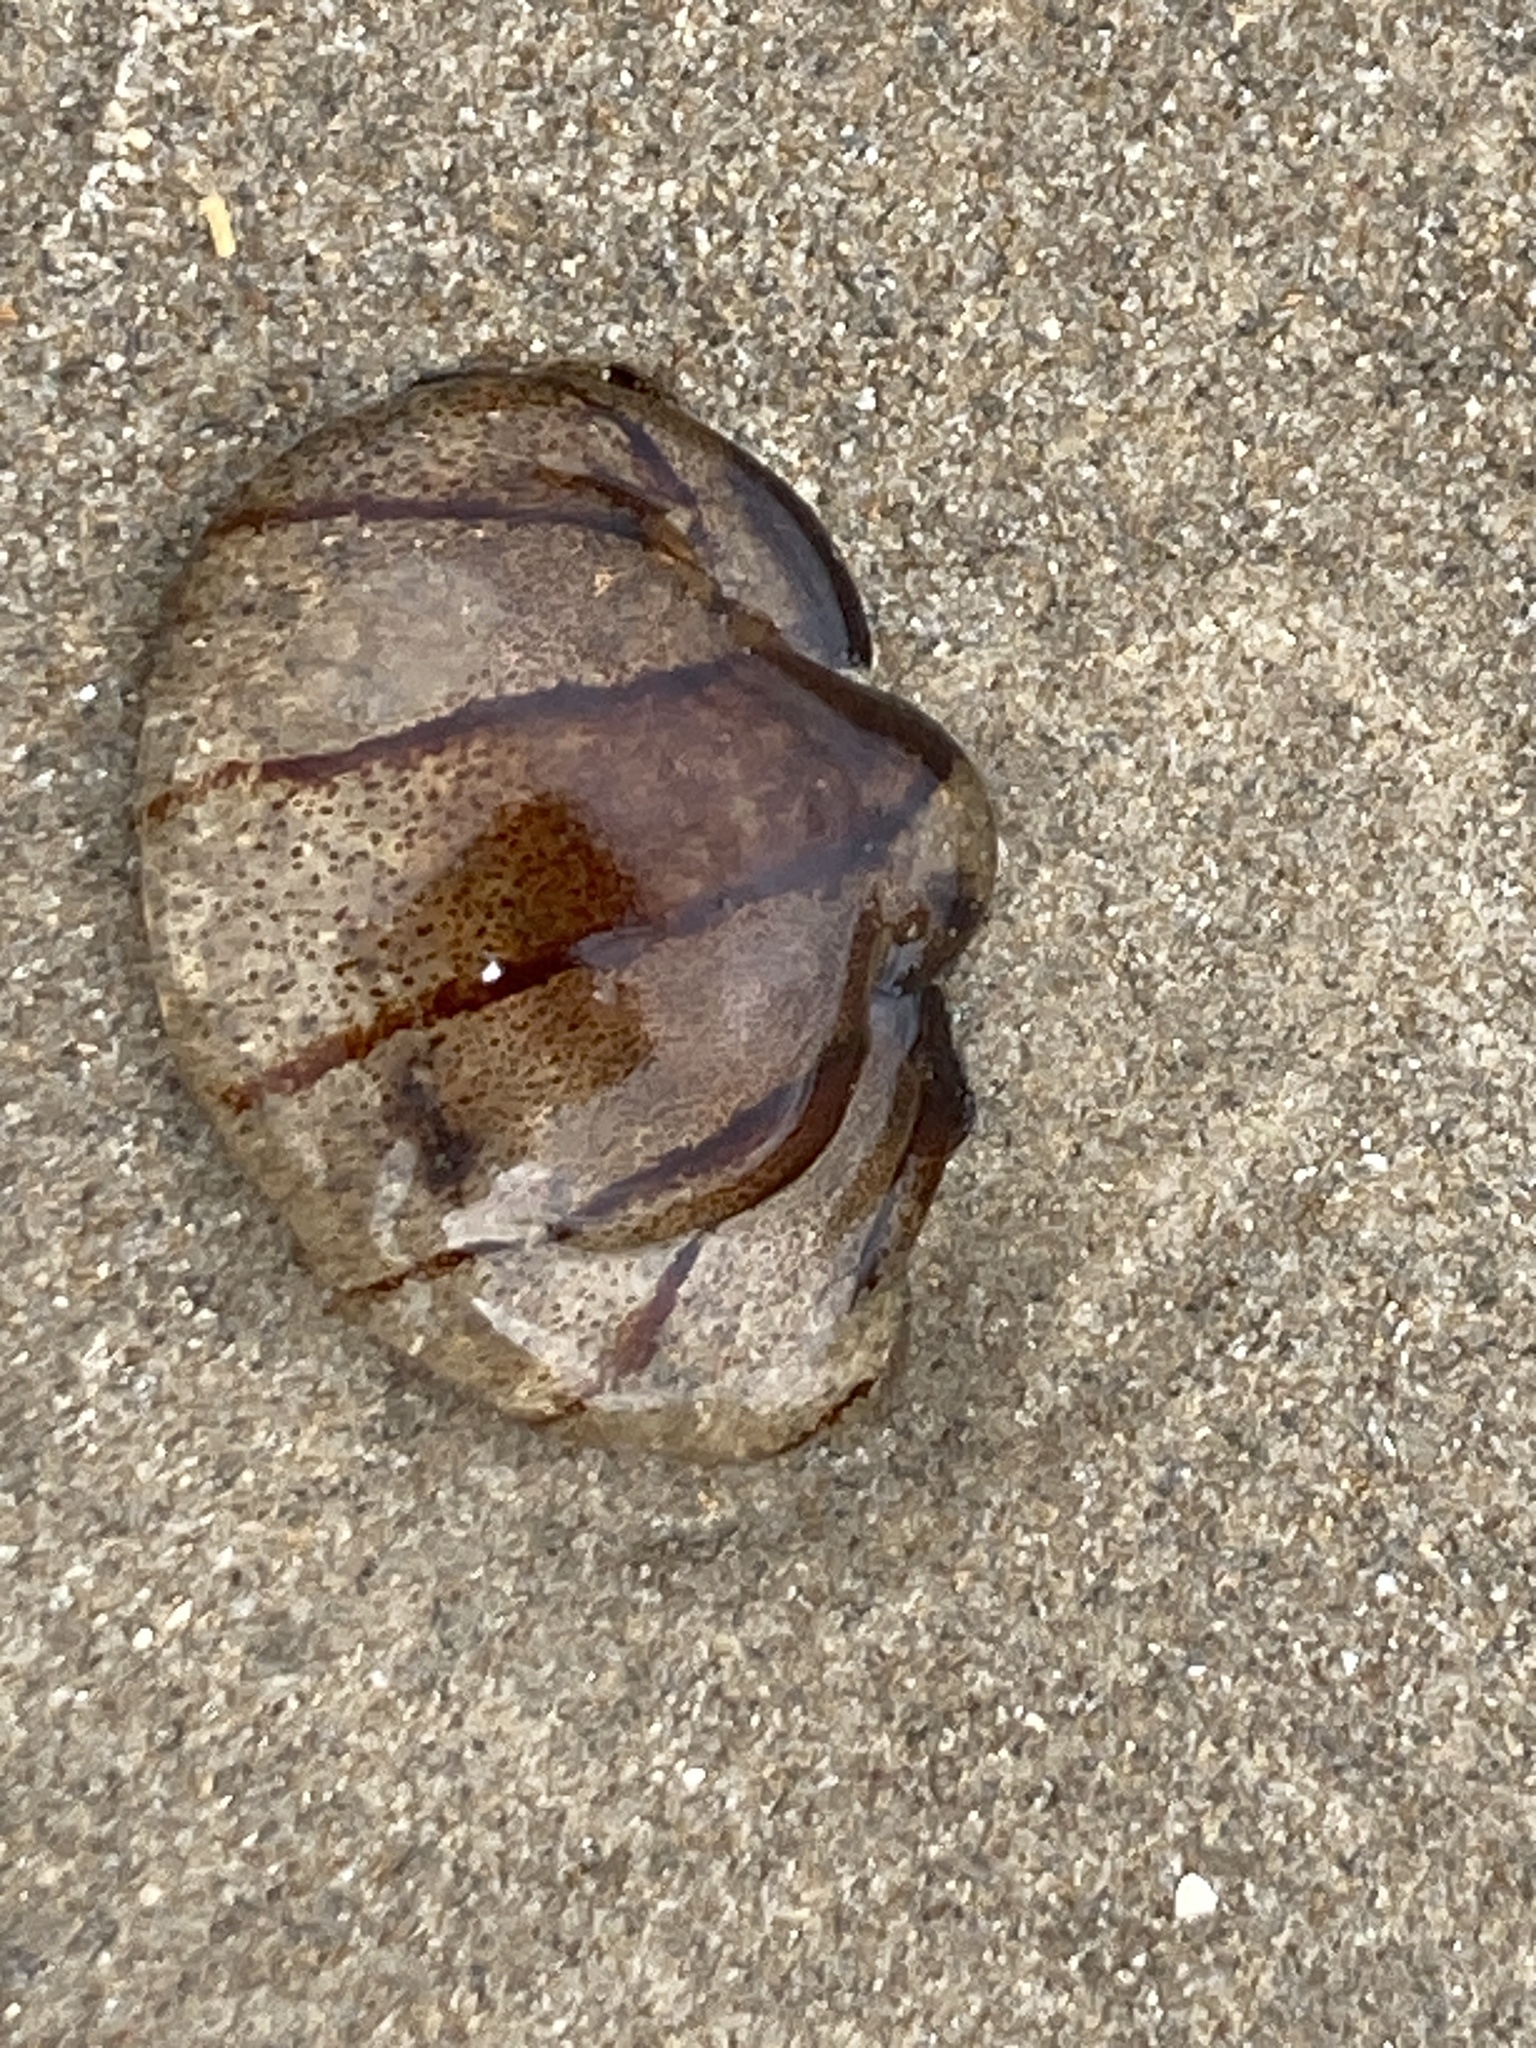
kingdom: Animalia
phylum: Cnidaria
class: Scyphozoa
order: Semaeostomeae
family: Pelagiidae
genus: Chrysaora
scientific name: Chrysaora hysoscella
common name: Compass jellyfish
